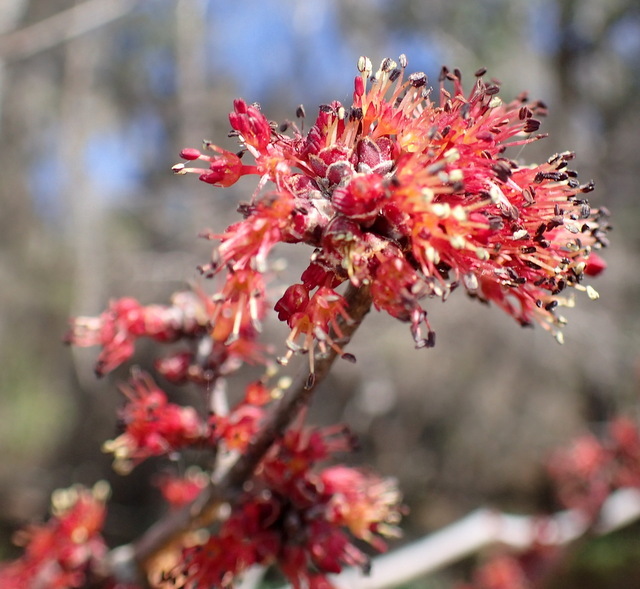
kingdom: Plantae
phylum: Tracheophyta
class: Magnoliopsida
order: Sapindales
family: Sapindaceae
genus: Acer
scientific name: Acer rubrum
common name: Red maple
